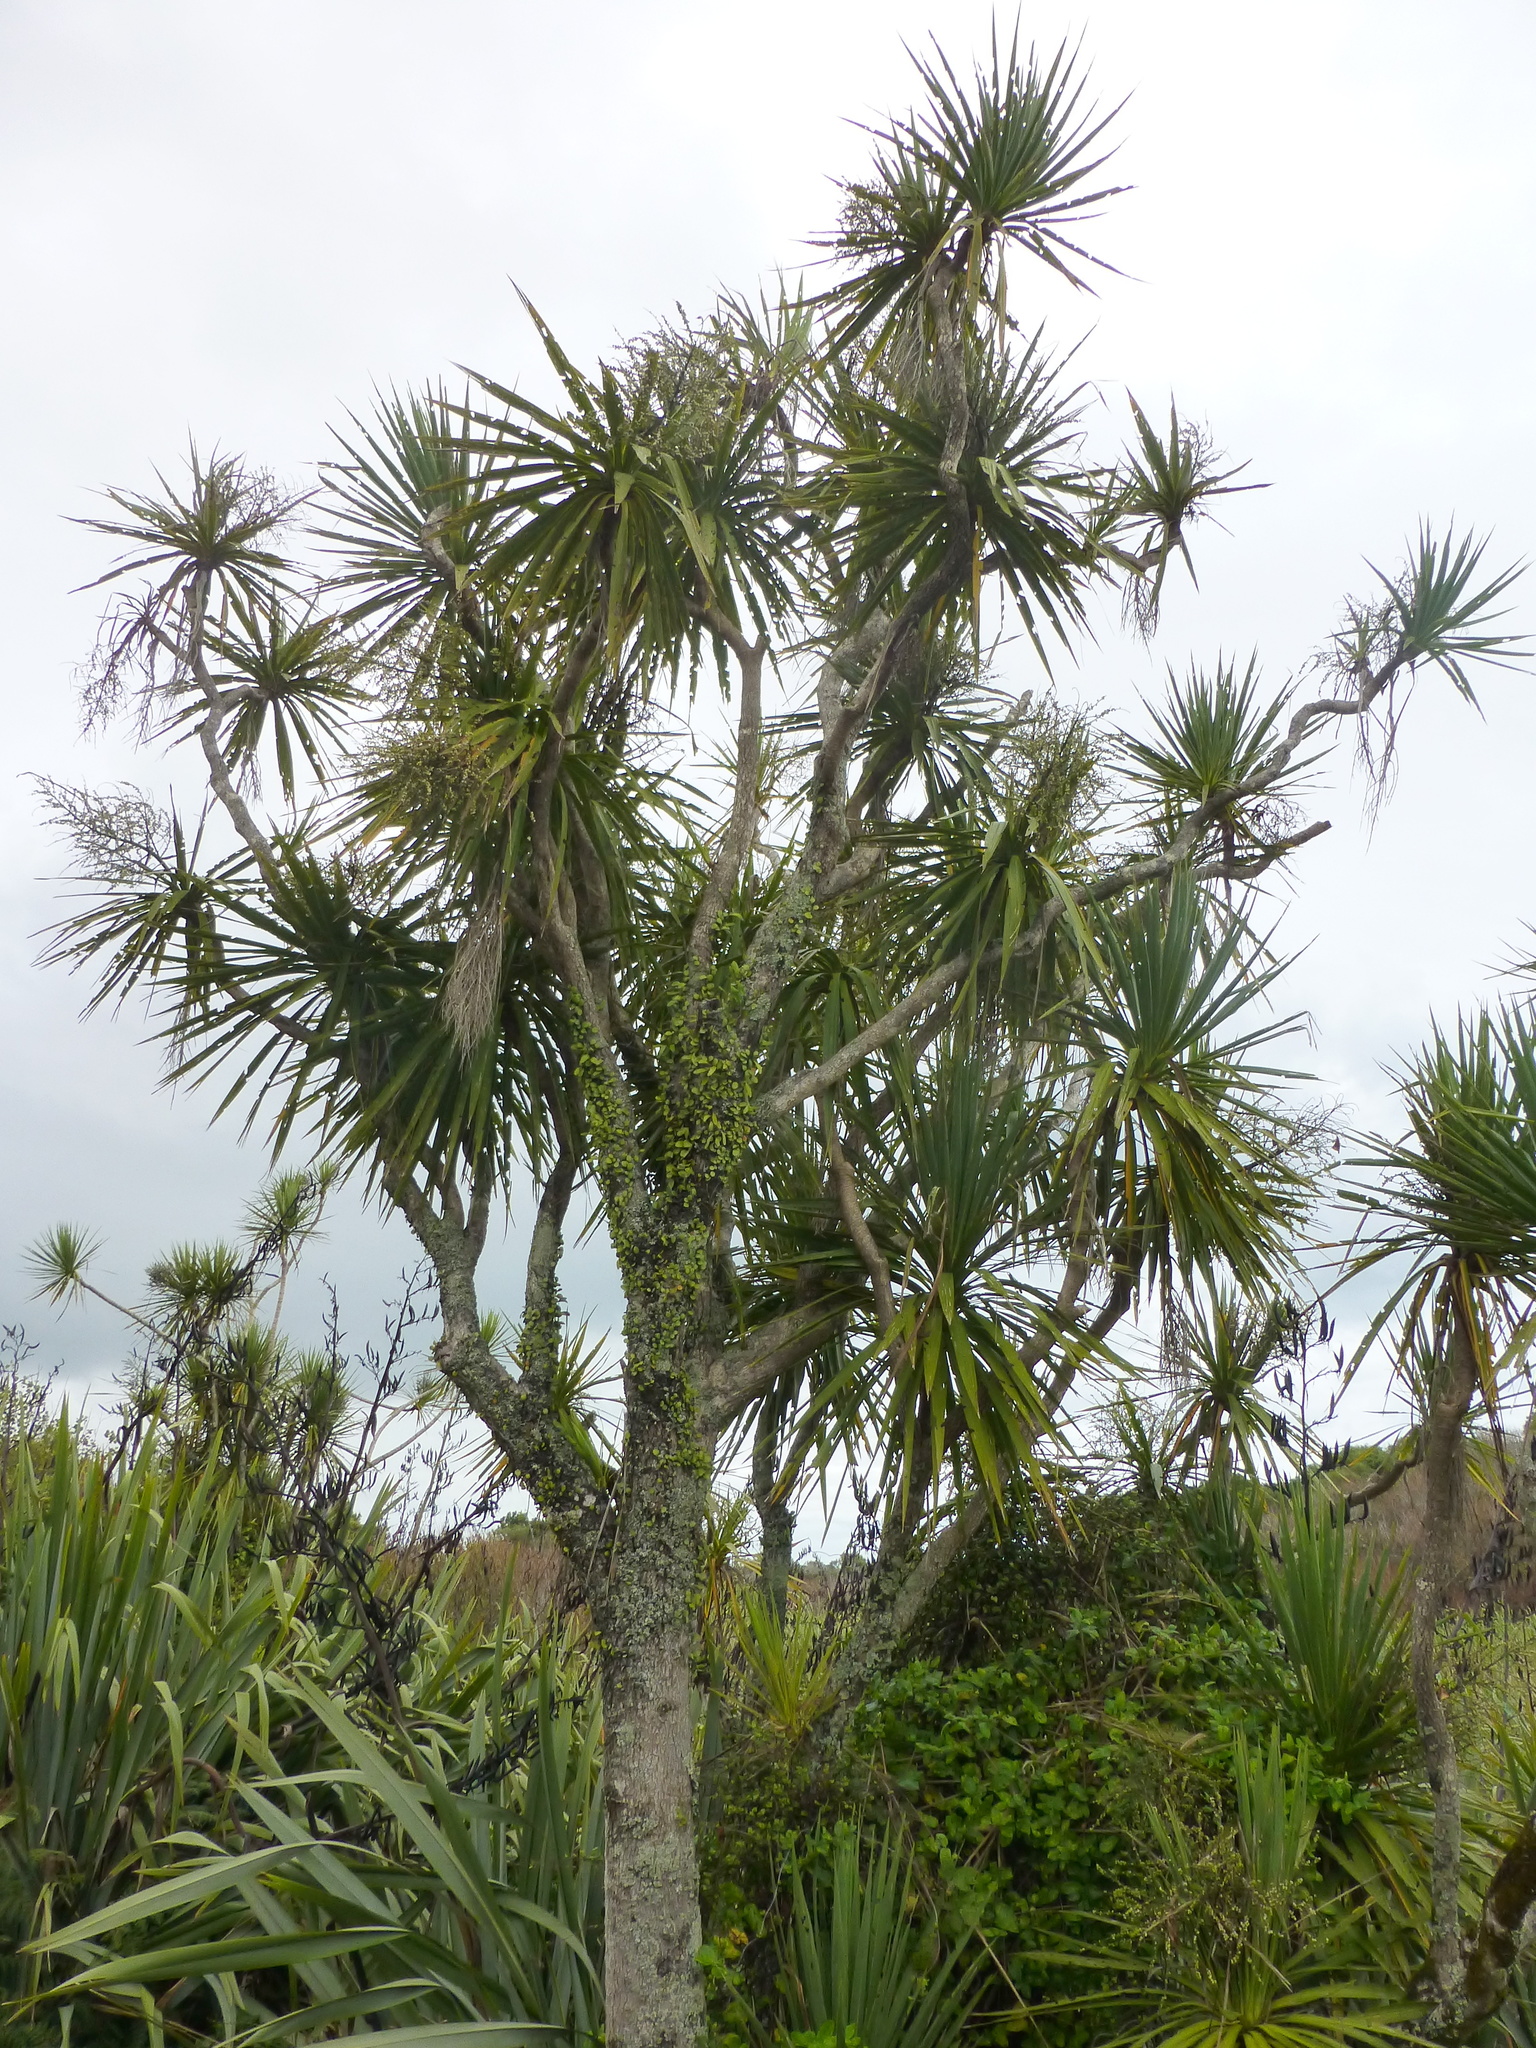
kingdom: Plantae
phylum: Tracheophyta
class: Liliopsida
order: Asparagales
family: Asparagaceae
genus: Cordyline
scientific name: Cordyline australis
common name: Cabbage-palm
